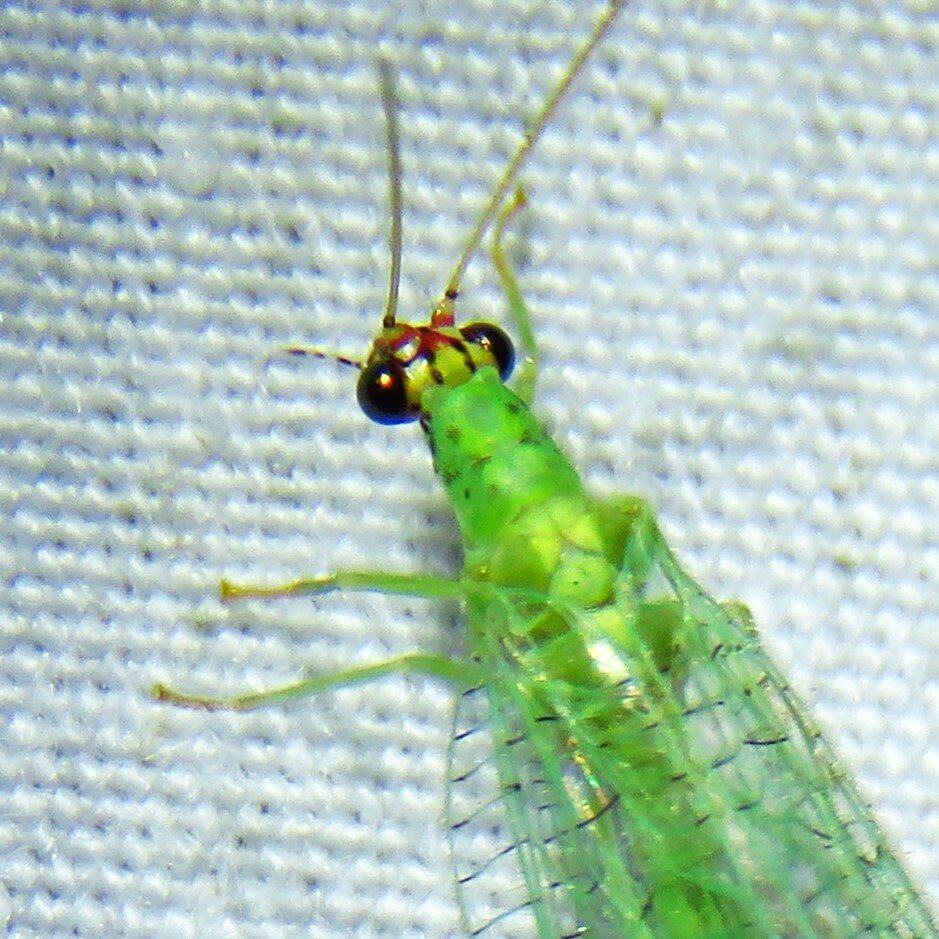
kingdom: Animalia
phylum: Arthropoda
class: Insecta
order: Neuroptera
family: Chrysopidae
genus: Chrysopa
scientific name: Chrysopa oculata
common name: Golden-eyed lacewing
